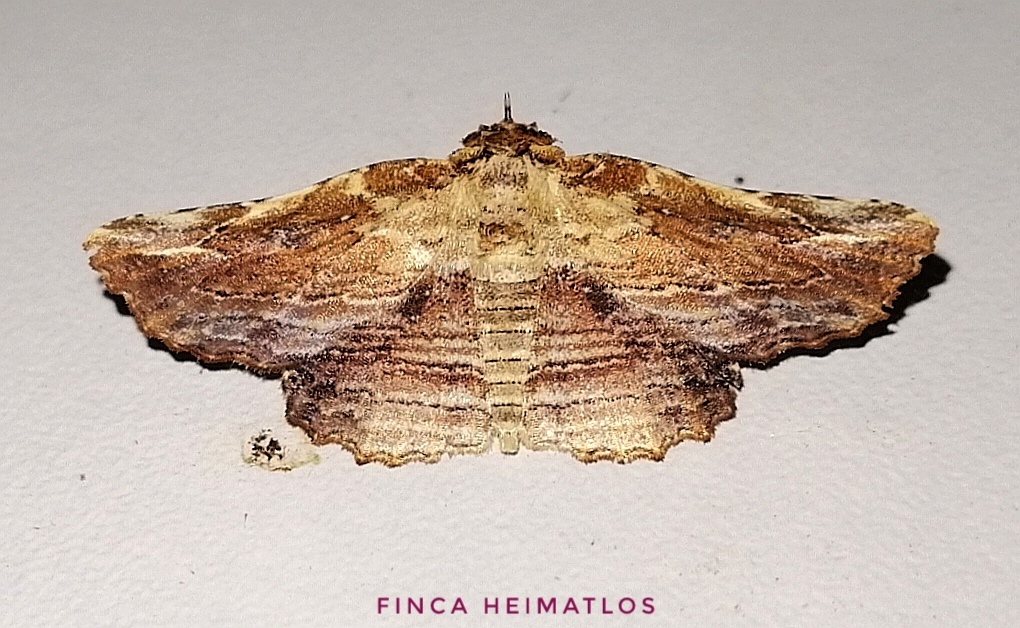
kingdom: Animalia
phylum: Arthropoda
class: Insecta
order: Lepidoptera
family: Erebidae
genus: Diagrapta
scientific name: Diagrapta lignaria
